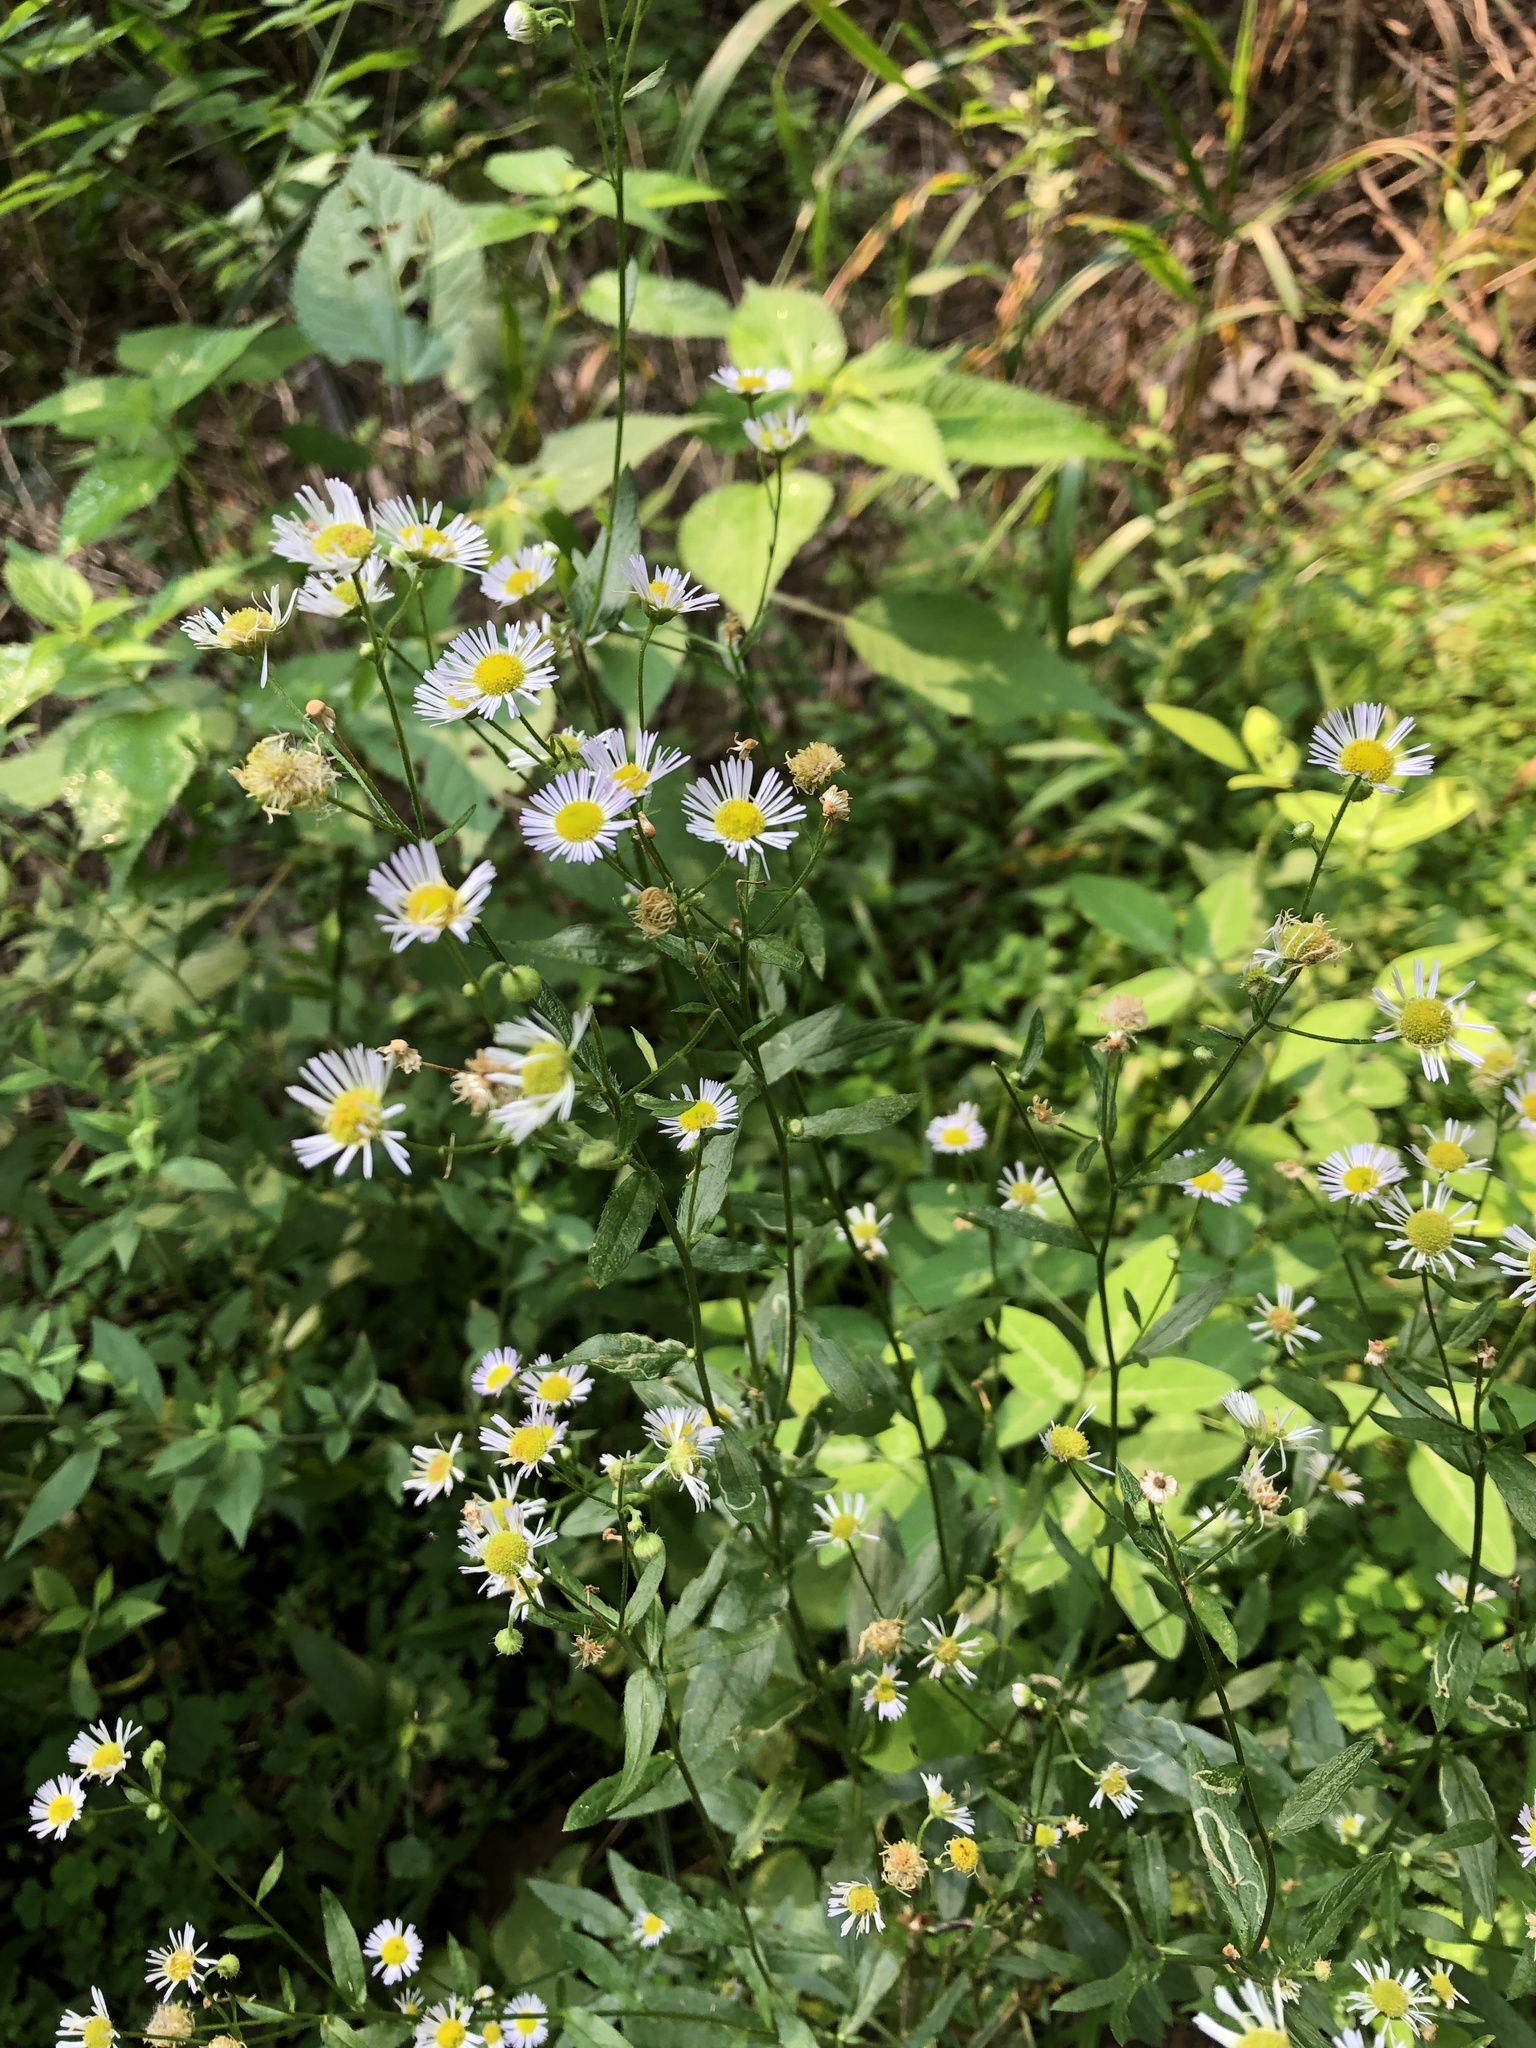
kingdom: Plantae
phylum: Tracheophyta
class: Magnoliopsida
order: Asterales
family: Asteraceae
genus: Erigeron
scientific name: Erigeron annuus
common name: Tall fleabane
